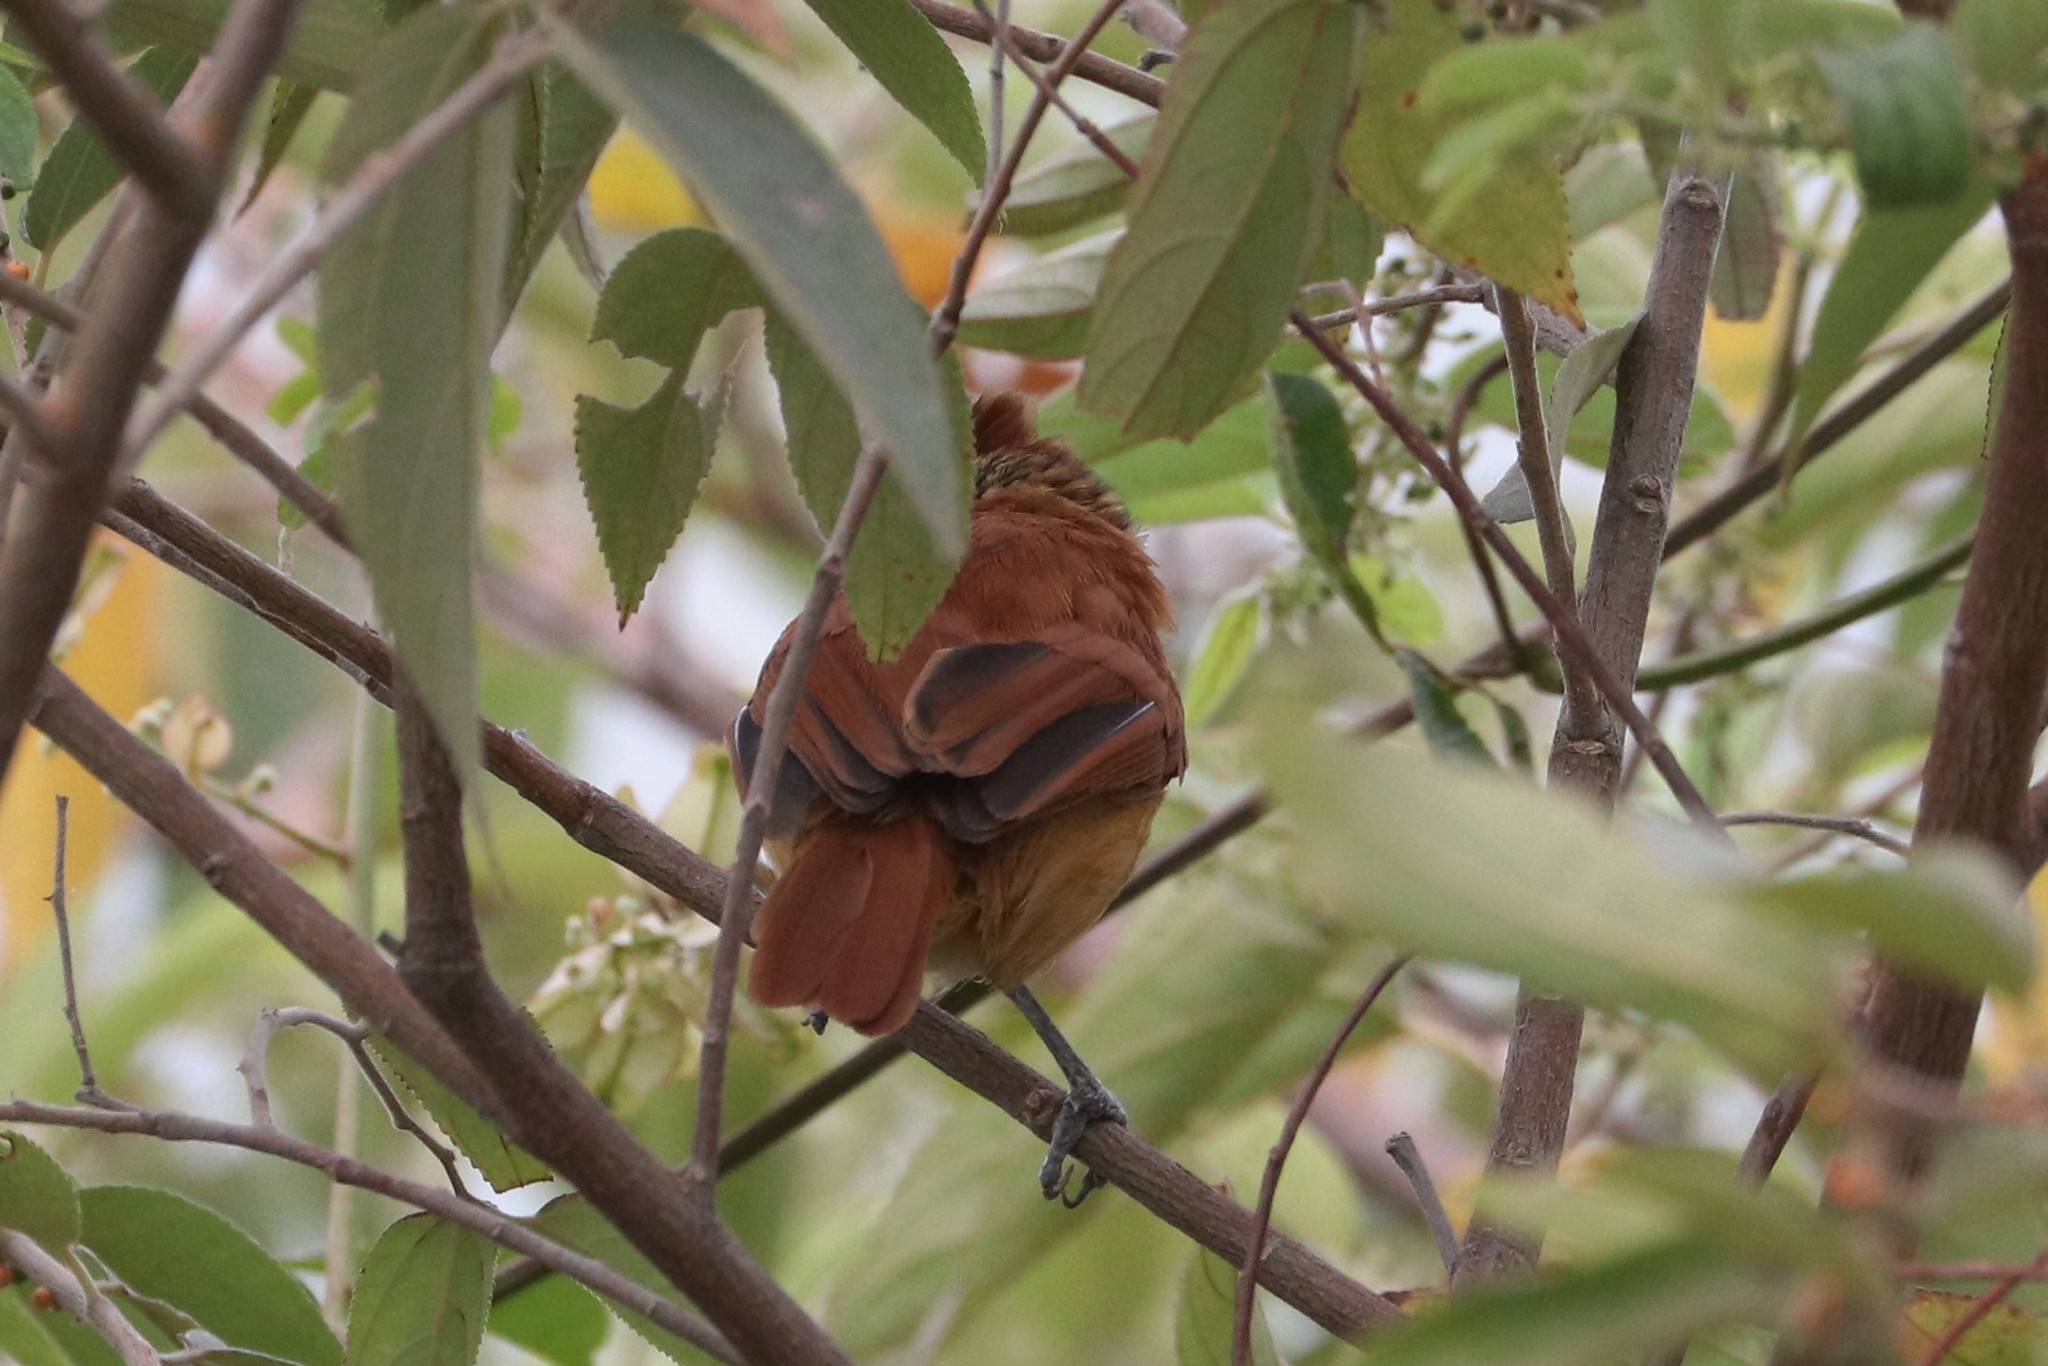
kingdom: Animalia
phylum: Chordata
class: Aves
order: Passeriformes
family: Thamnophilidae
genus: Thamnophilus
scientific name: Thamnophilus doliatus
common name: Barred antshrike
